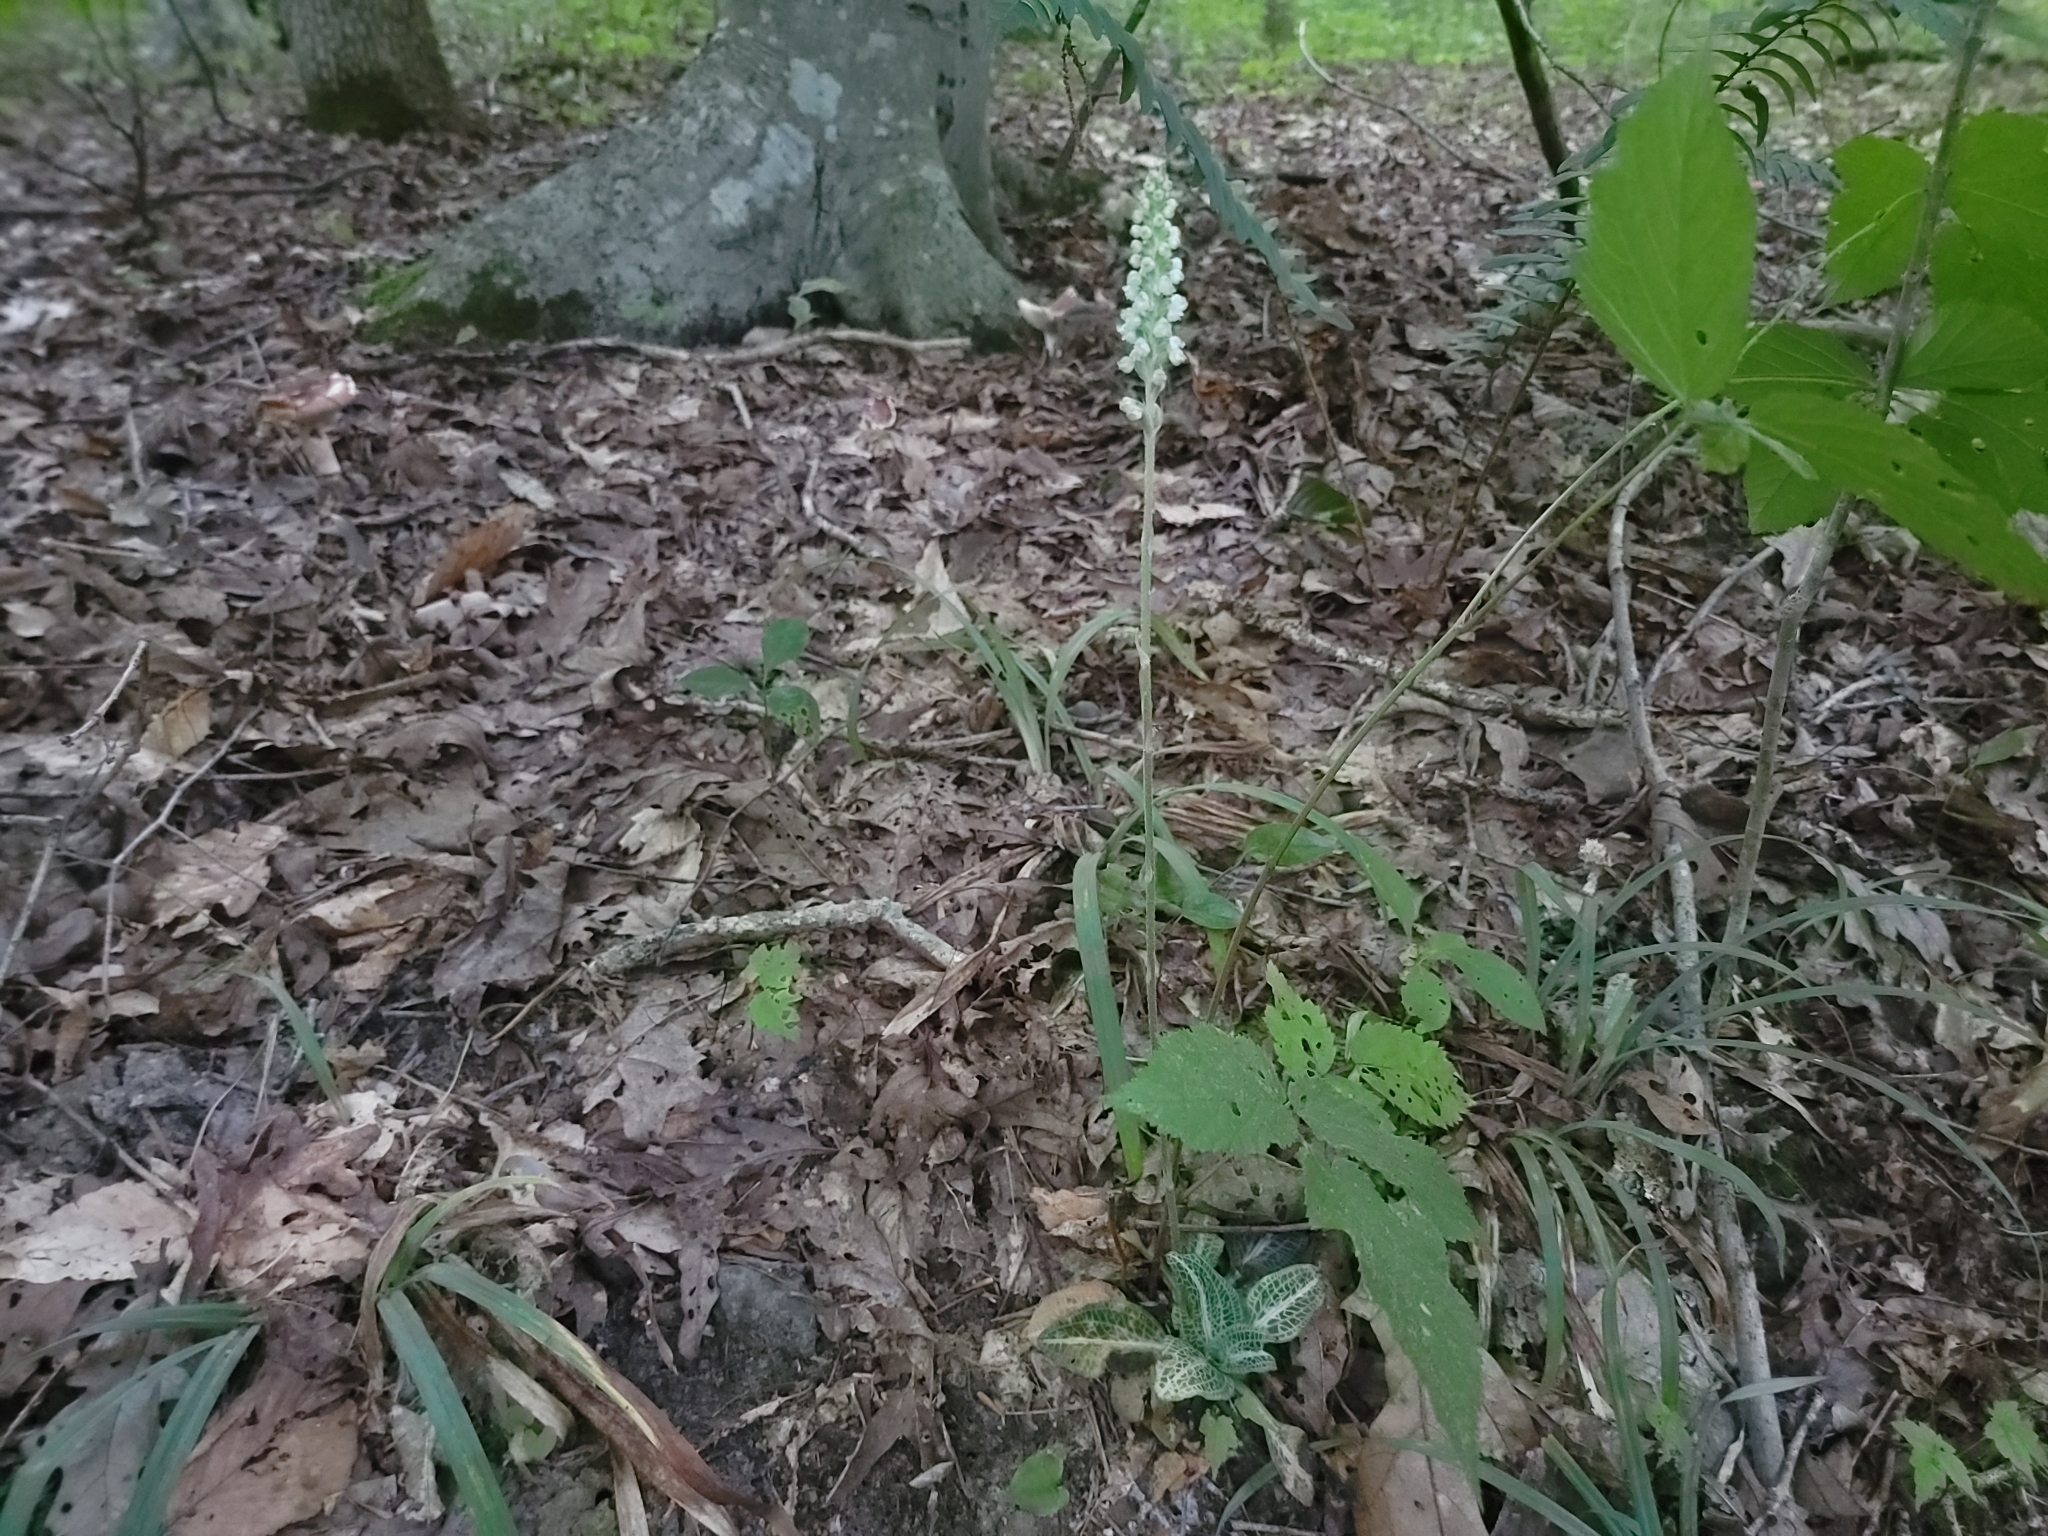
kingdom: Plantae
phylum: Tracheophyta
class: Liliopsida
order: Asparagales
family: Orchidaceae
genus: Goodyera
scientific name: Goodyera pubescens
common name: Downy rattlesnake-plantain
